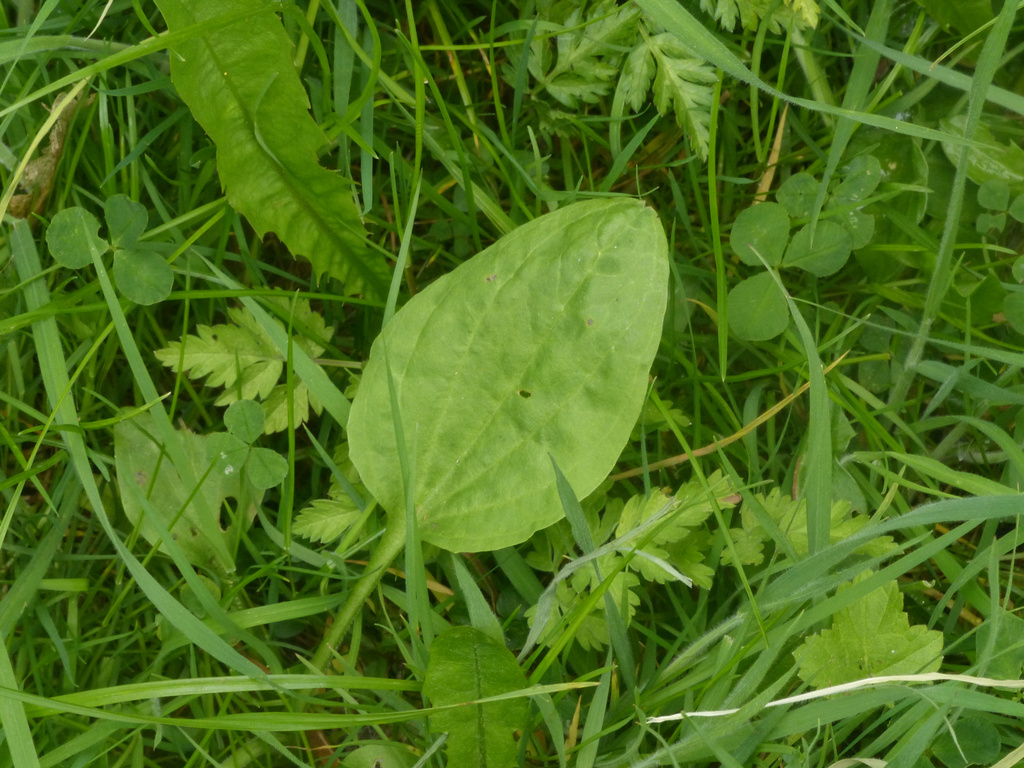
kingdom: Plantae
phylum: Tracheophyta
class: Magnoliopsida
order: Lamiales
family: Plantaginaceae
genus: Plantago
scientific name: Plantago major
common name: Common plantain
